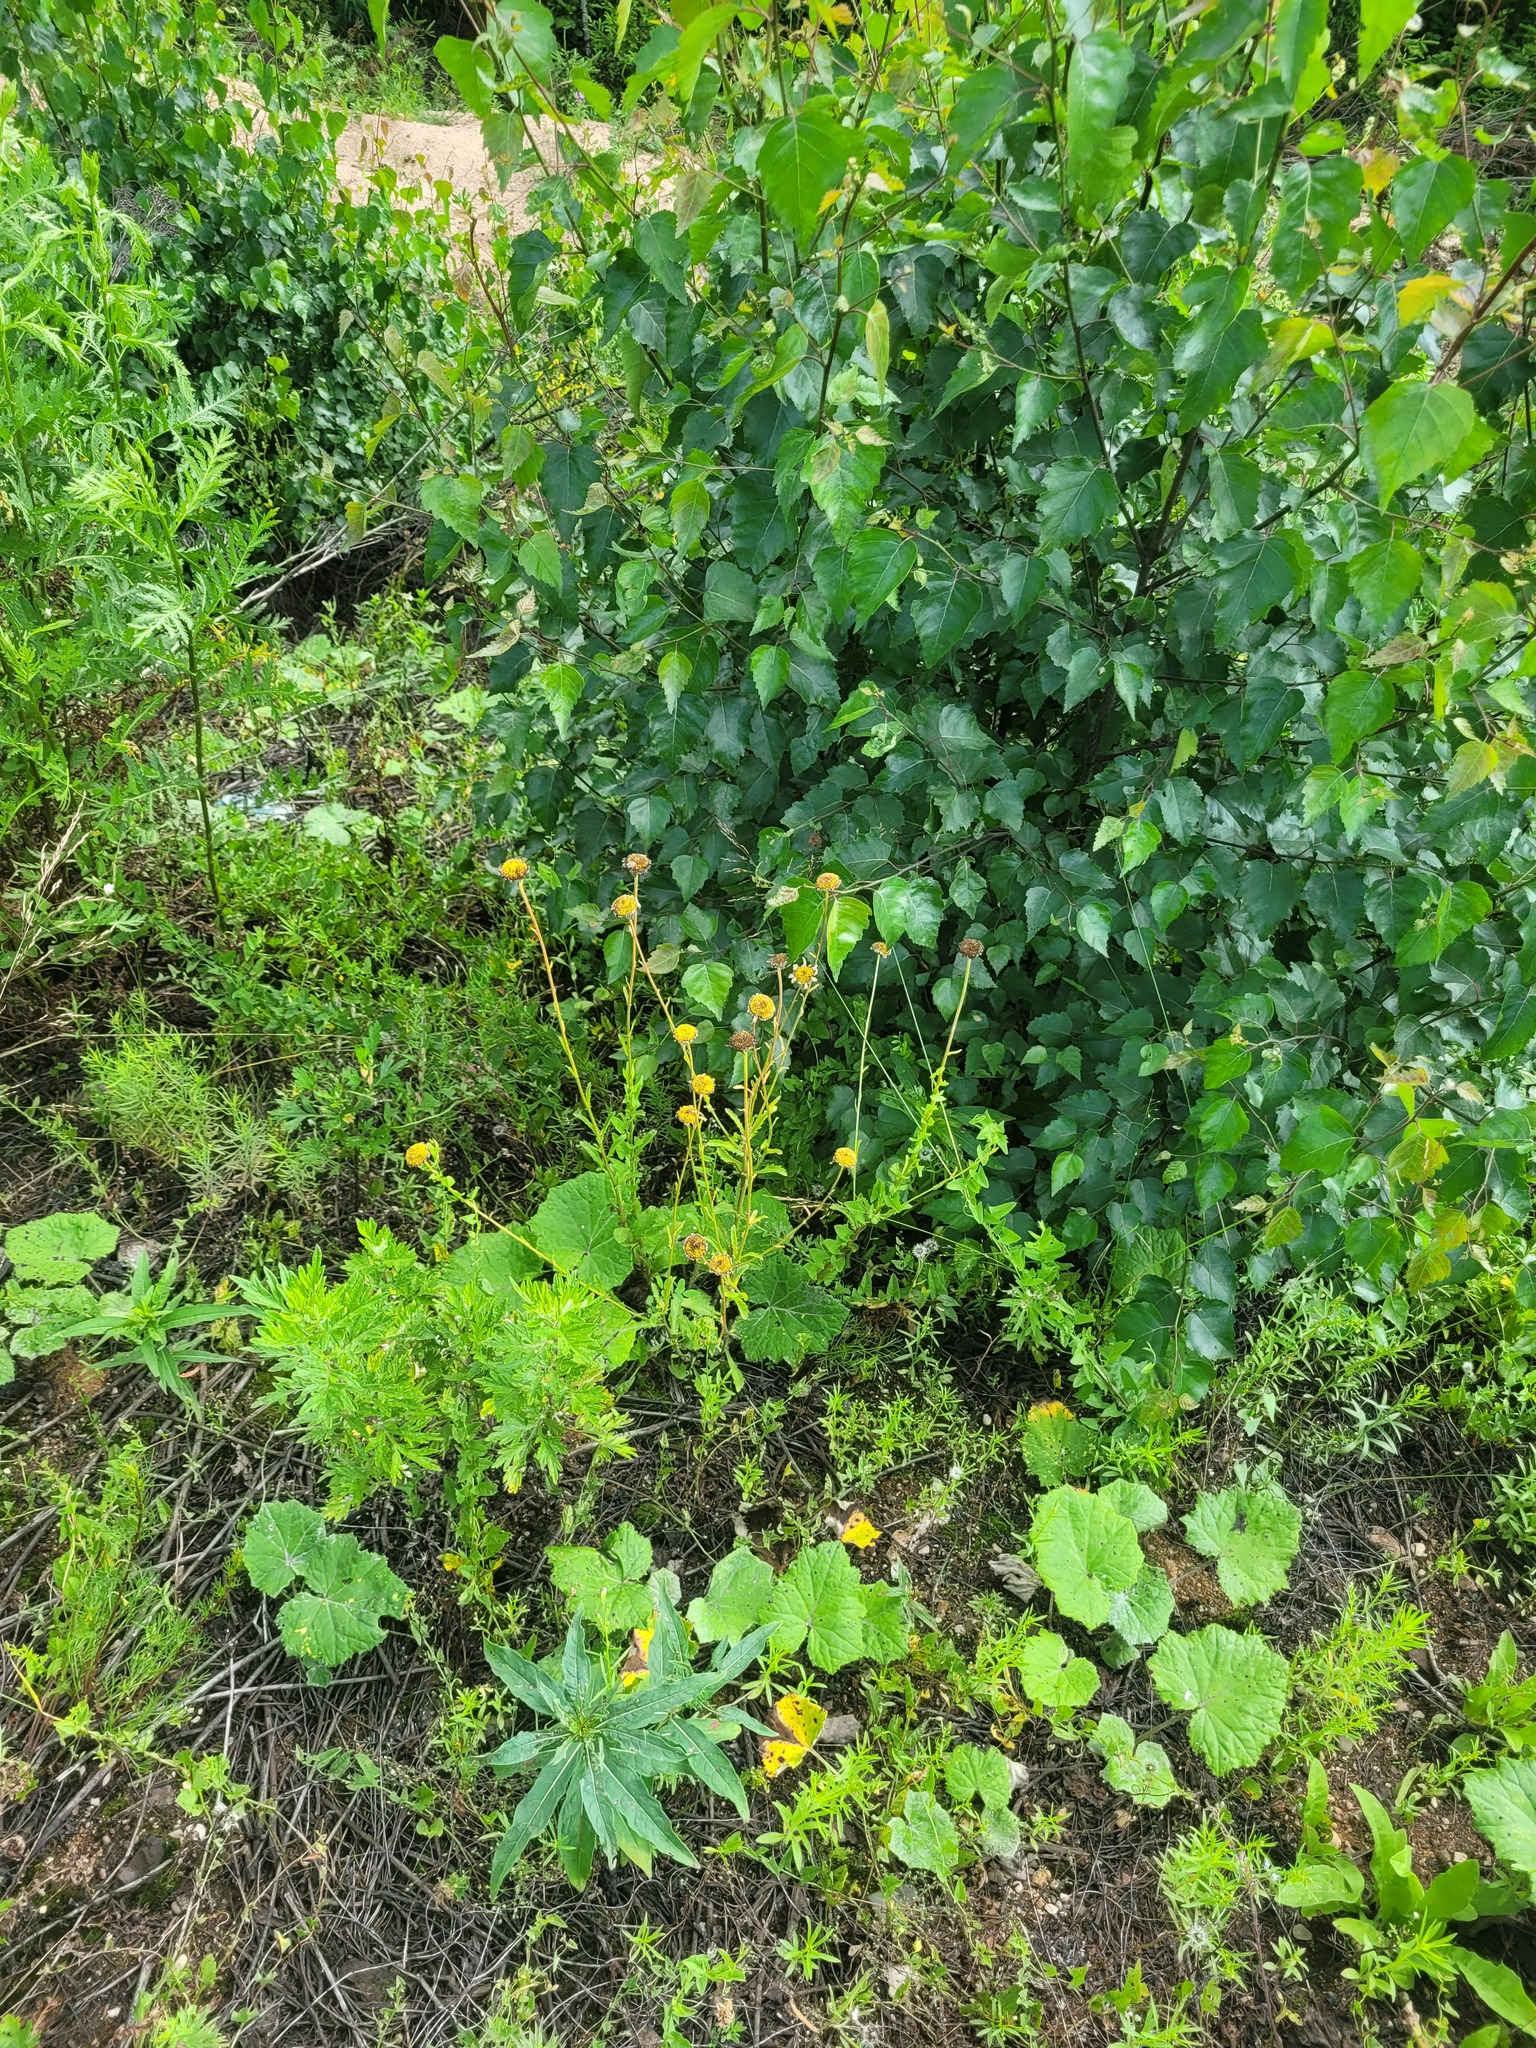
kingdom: Plantae
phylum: Tracheophyta
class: Magnoliopsida
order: Asterales
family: Asteraceae
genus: Leucanthemum
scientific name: Leucanthemum vulgare
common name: Oxeye daisy
